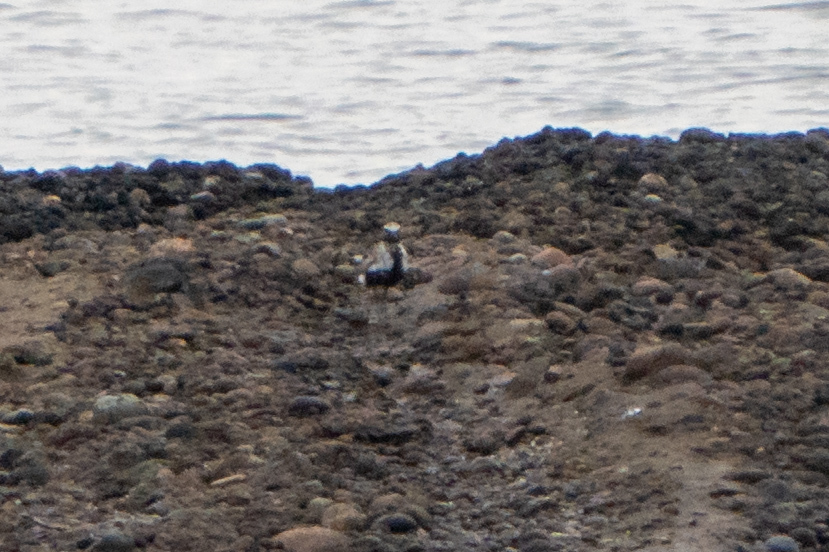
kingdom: Animalia
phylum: Chordata
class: Aves
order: Charadriiformes
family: Charadriidae
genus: Pluvialis
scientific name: Pluvialis squatarola
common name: Grey plover
